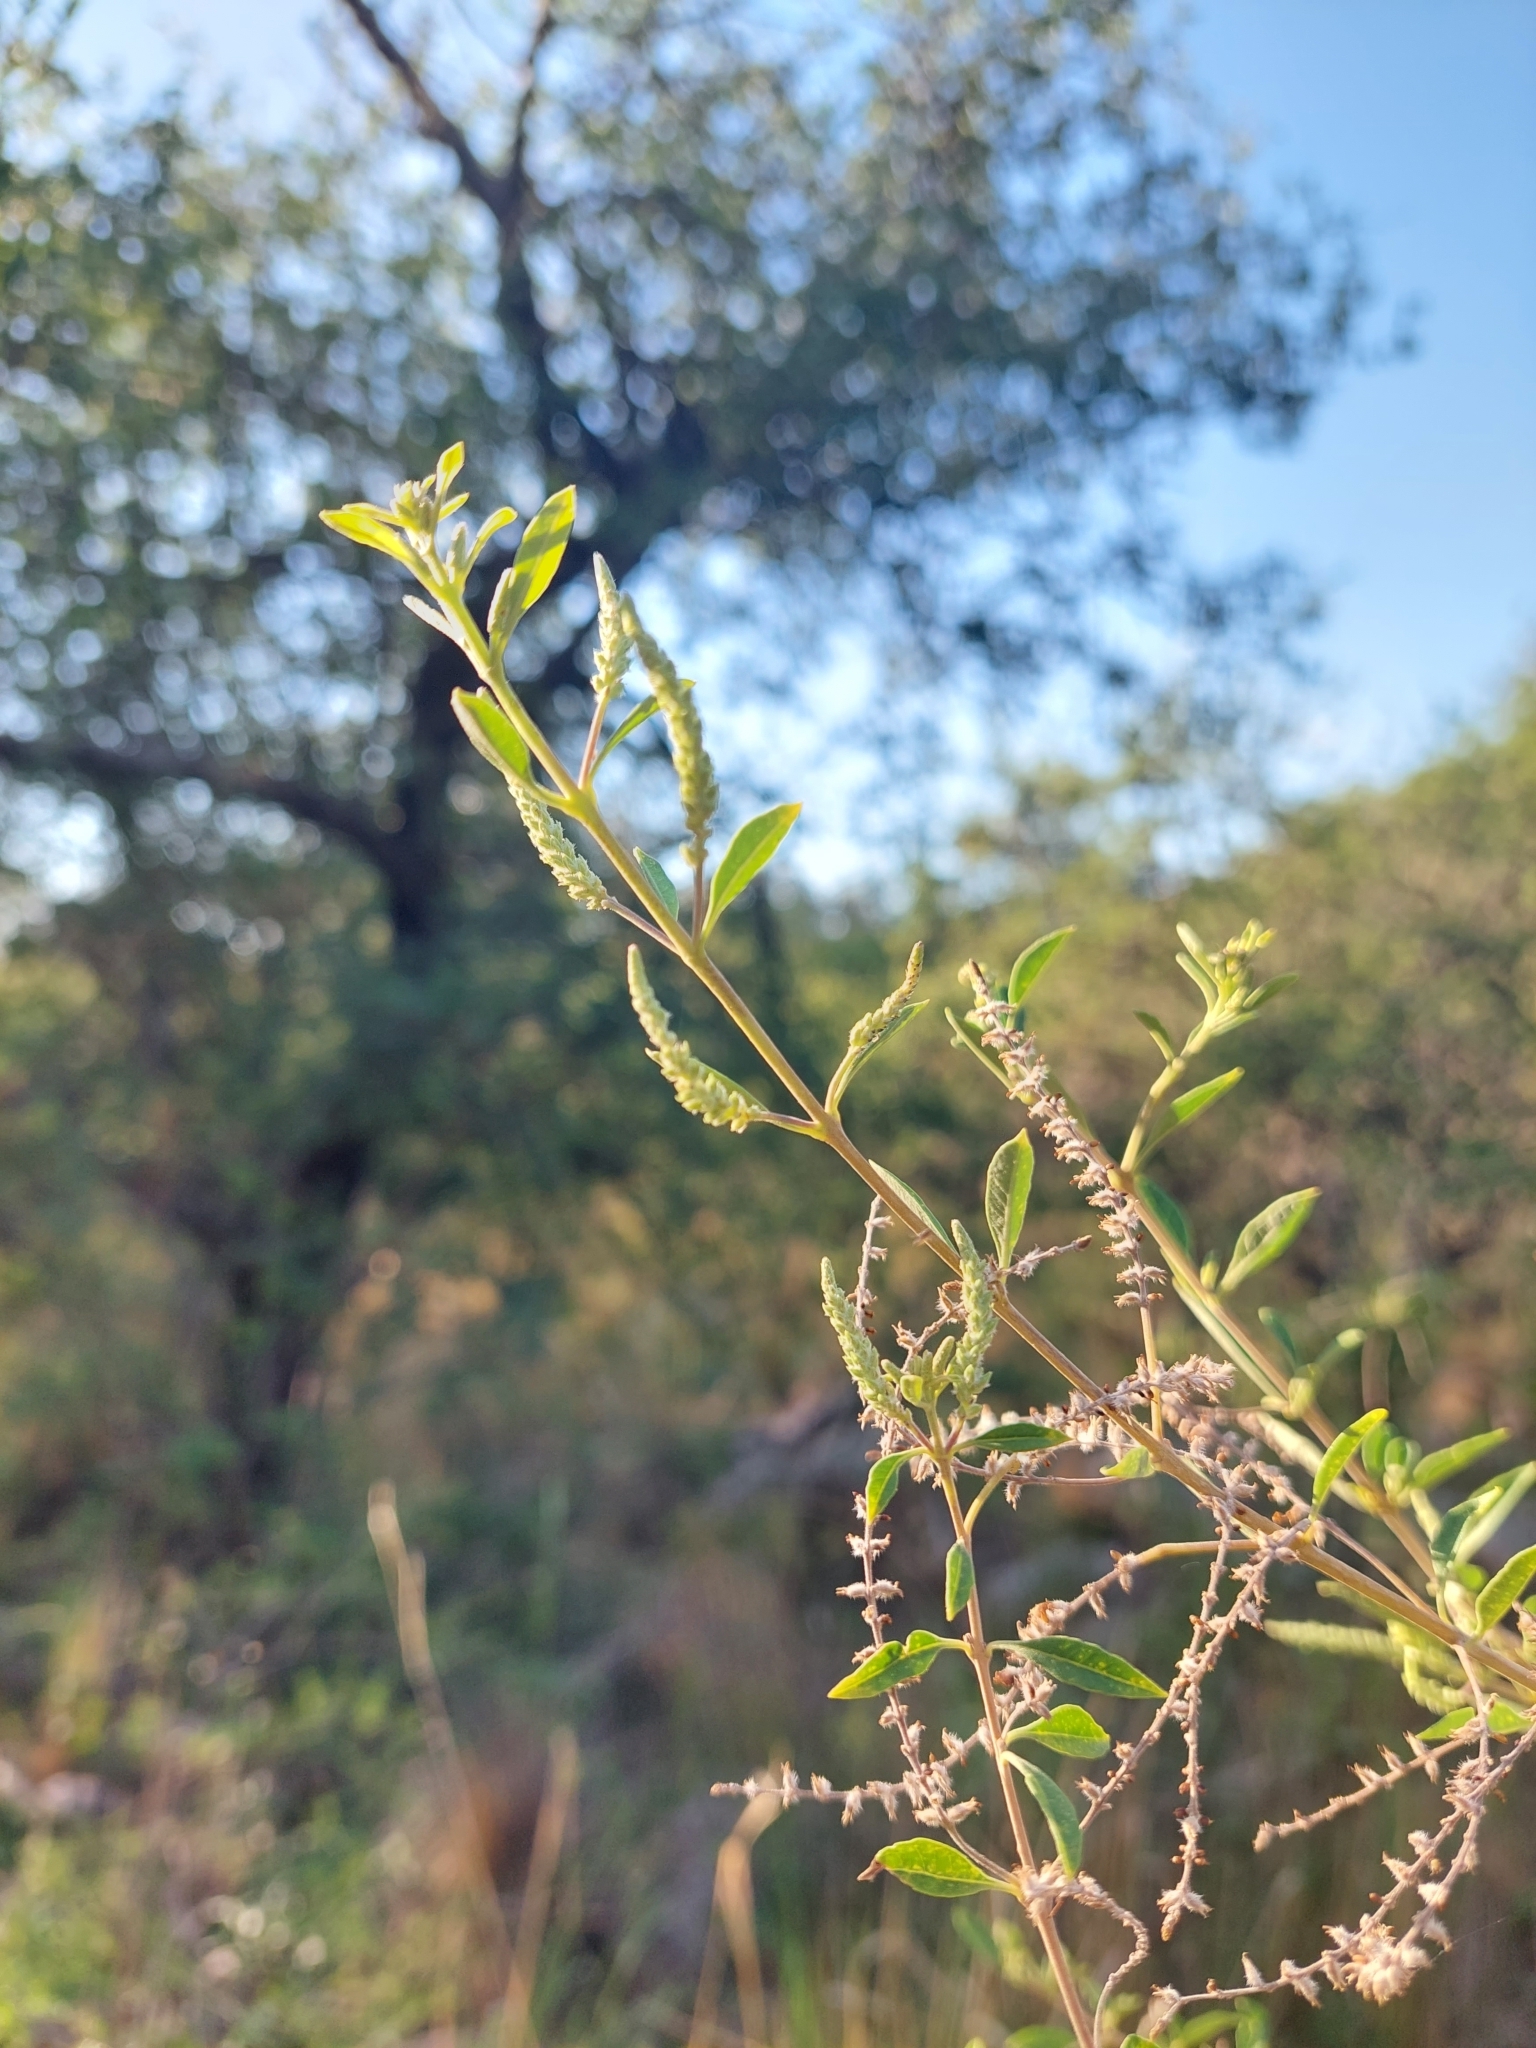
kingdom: Plantae
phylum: Tracheophyta
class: Magnoliopsida
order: Lamiales
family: Verbenaceae
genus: Aloysia
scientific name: Aloysia gratissima
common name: Common bee-brush
